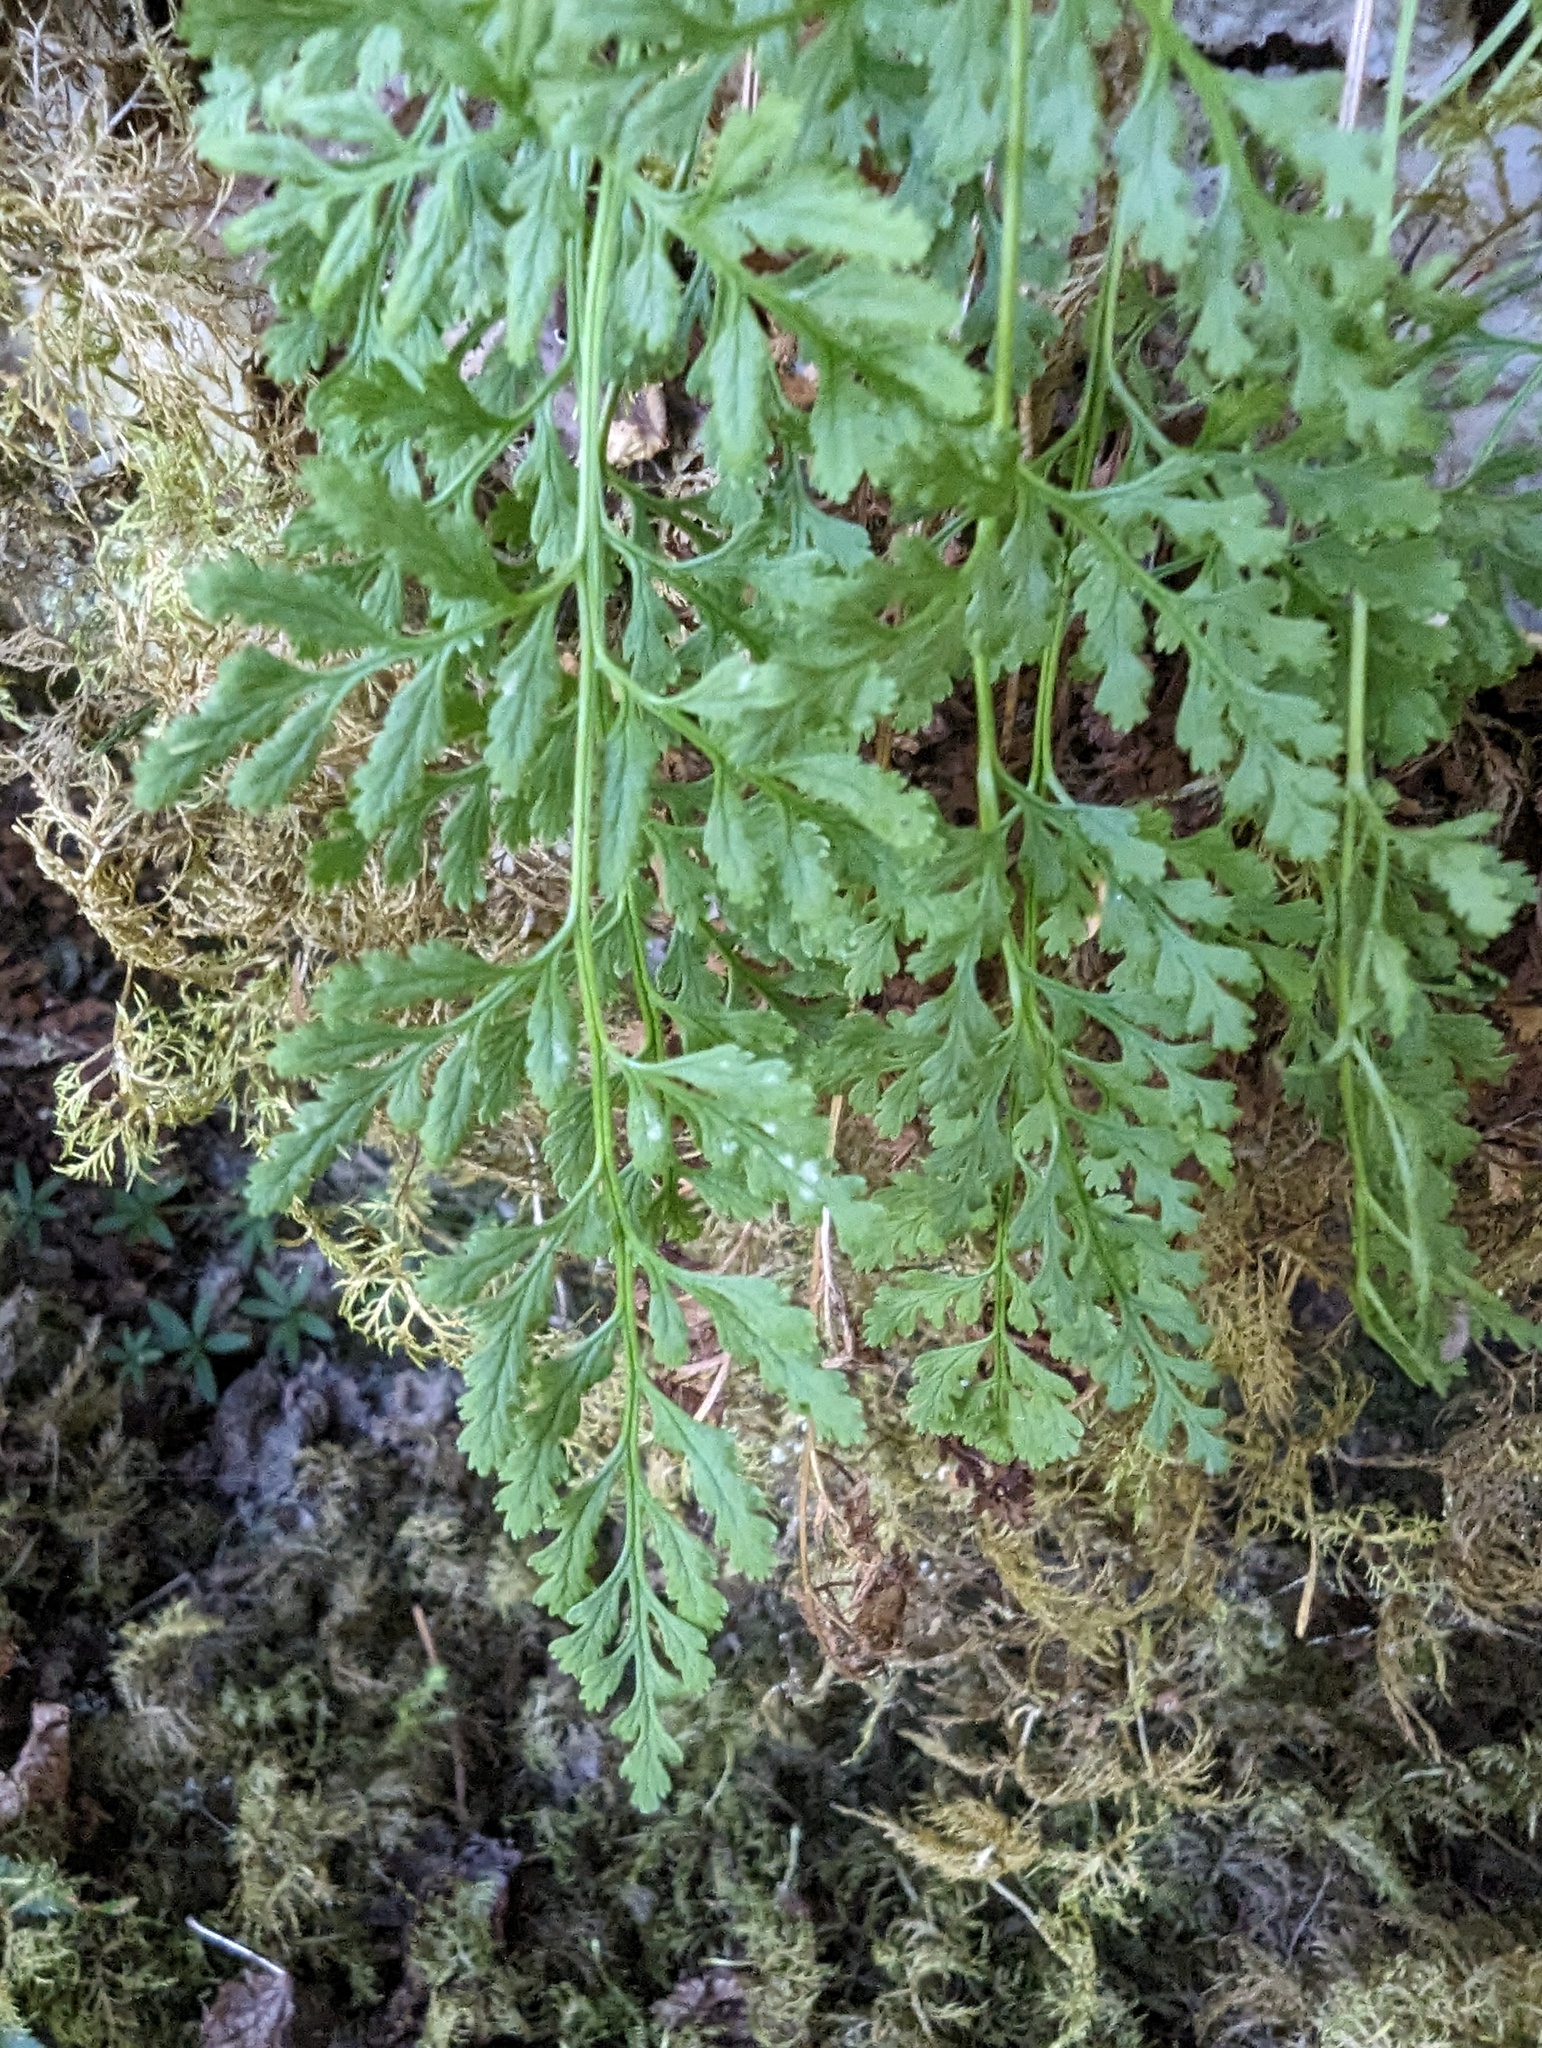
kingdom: Plantae
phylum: Tracheophyta
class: Polypodiopsida
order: Polypodiales
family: Pteridaceae
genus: Cryptogramma
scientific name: Cryptogramma acrostichoides
